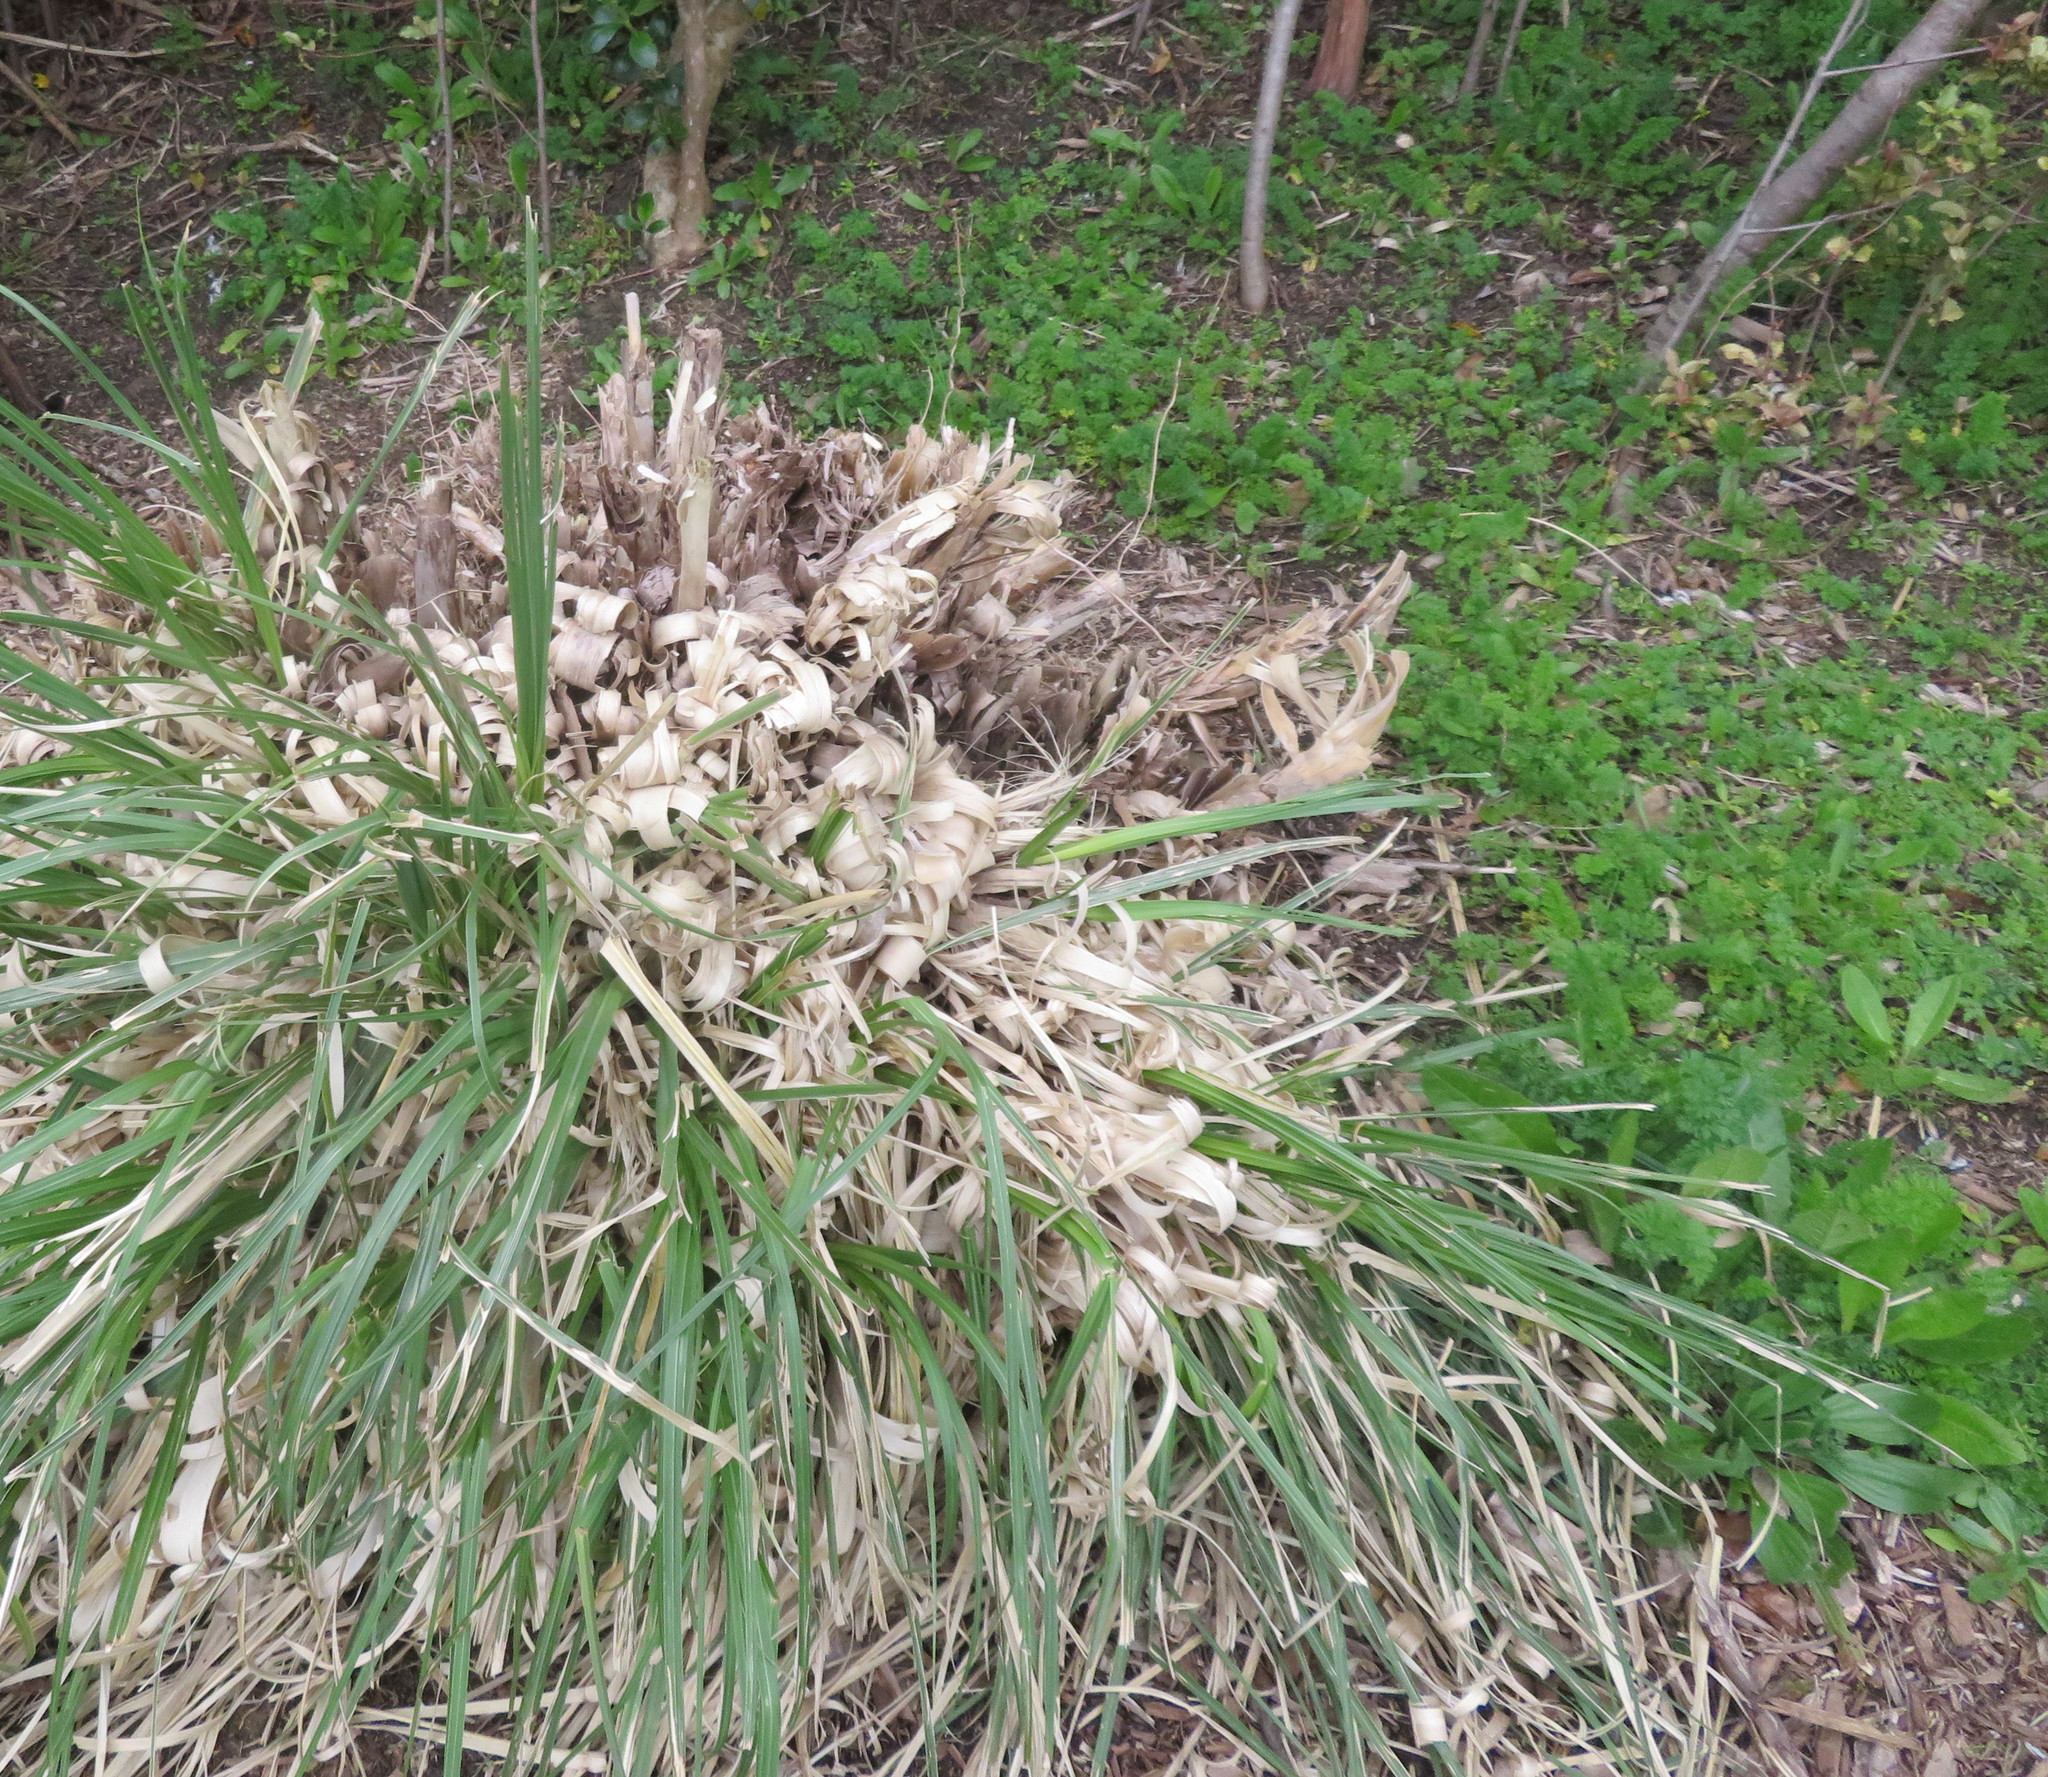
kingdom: Plantae
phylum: Tracheophyta
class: Magnoliopsida
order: Apiales
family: Apiaceae
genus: Daucus
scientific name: Daucus carota
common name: Wild carrot
